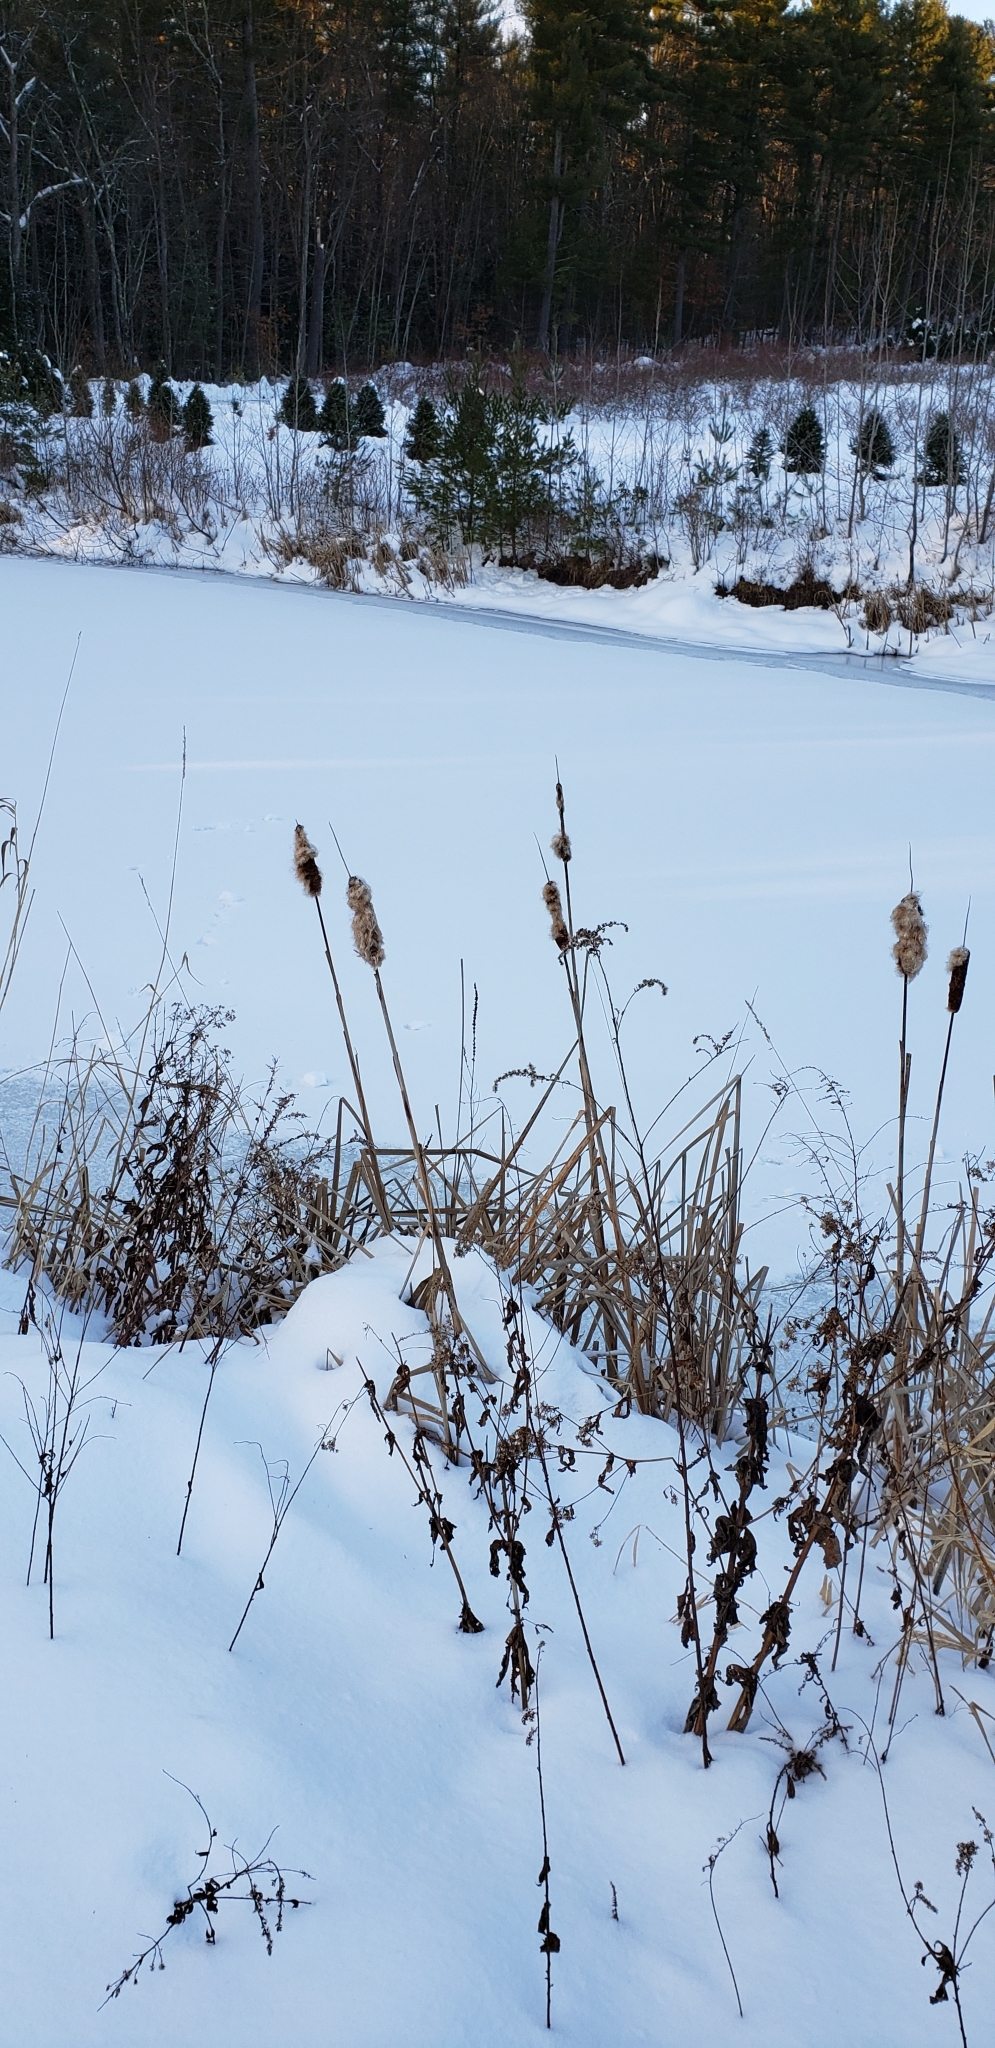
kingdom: Plantae
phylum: Tracheophyta
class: Liliopsida
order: Poales
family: Typhaceae
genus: Typha
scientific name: Typha latifolia
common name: Broadleaf cattail
